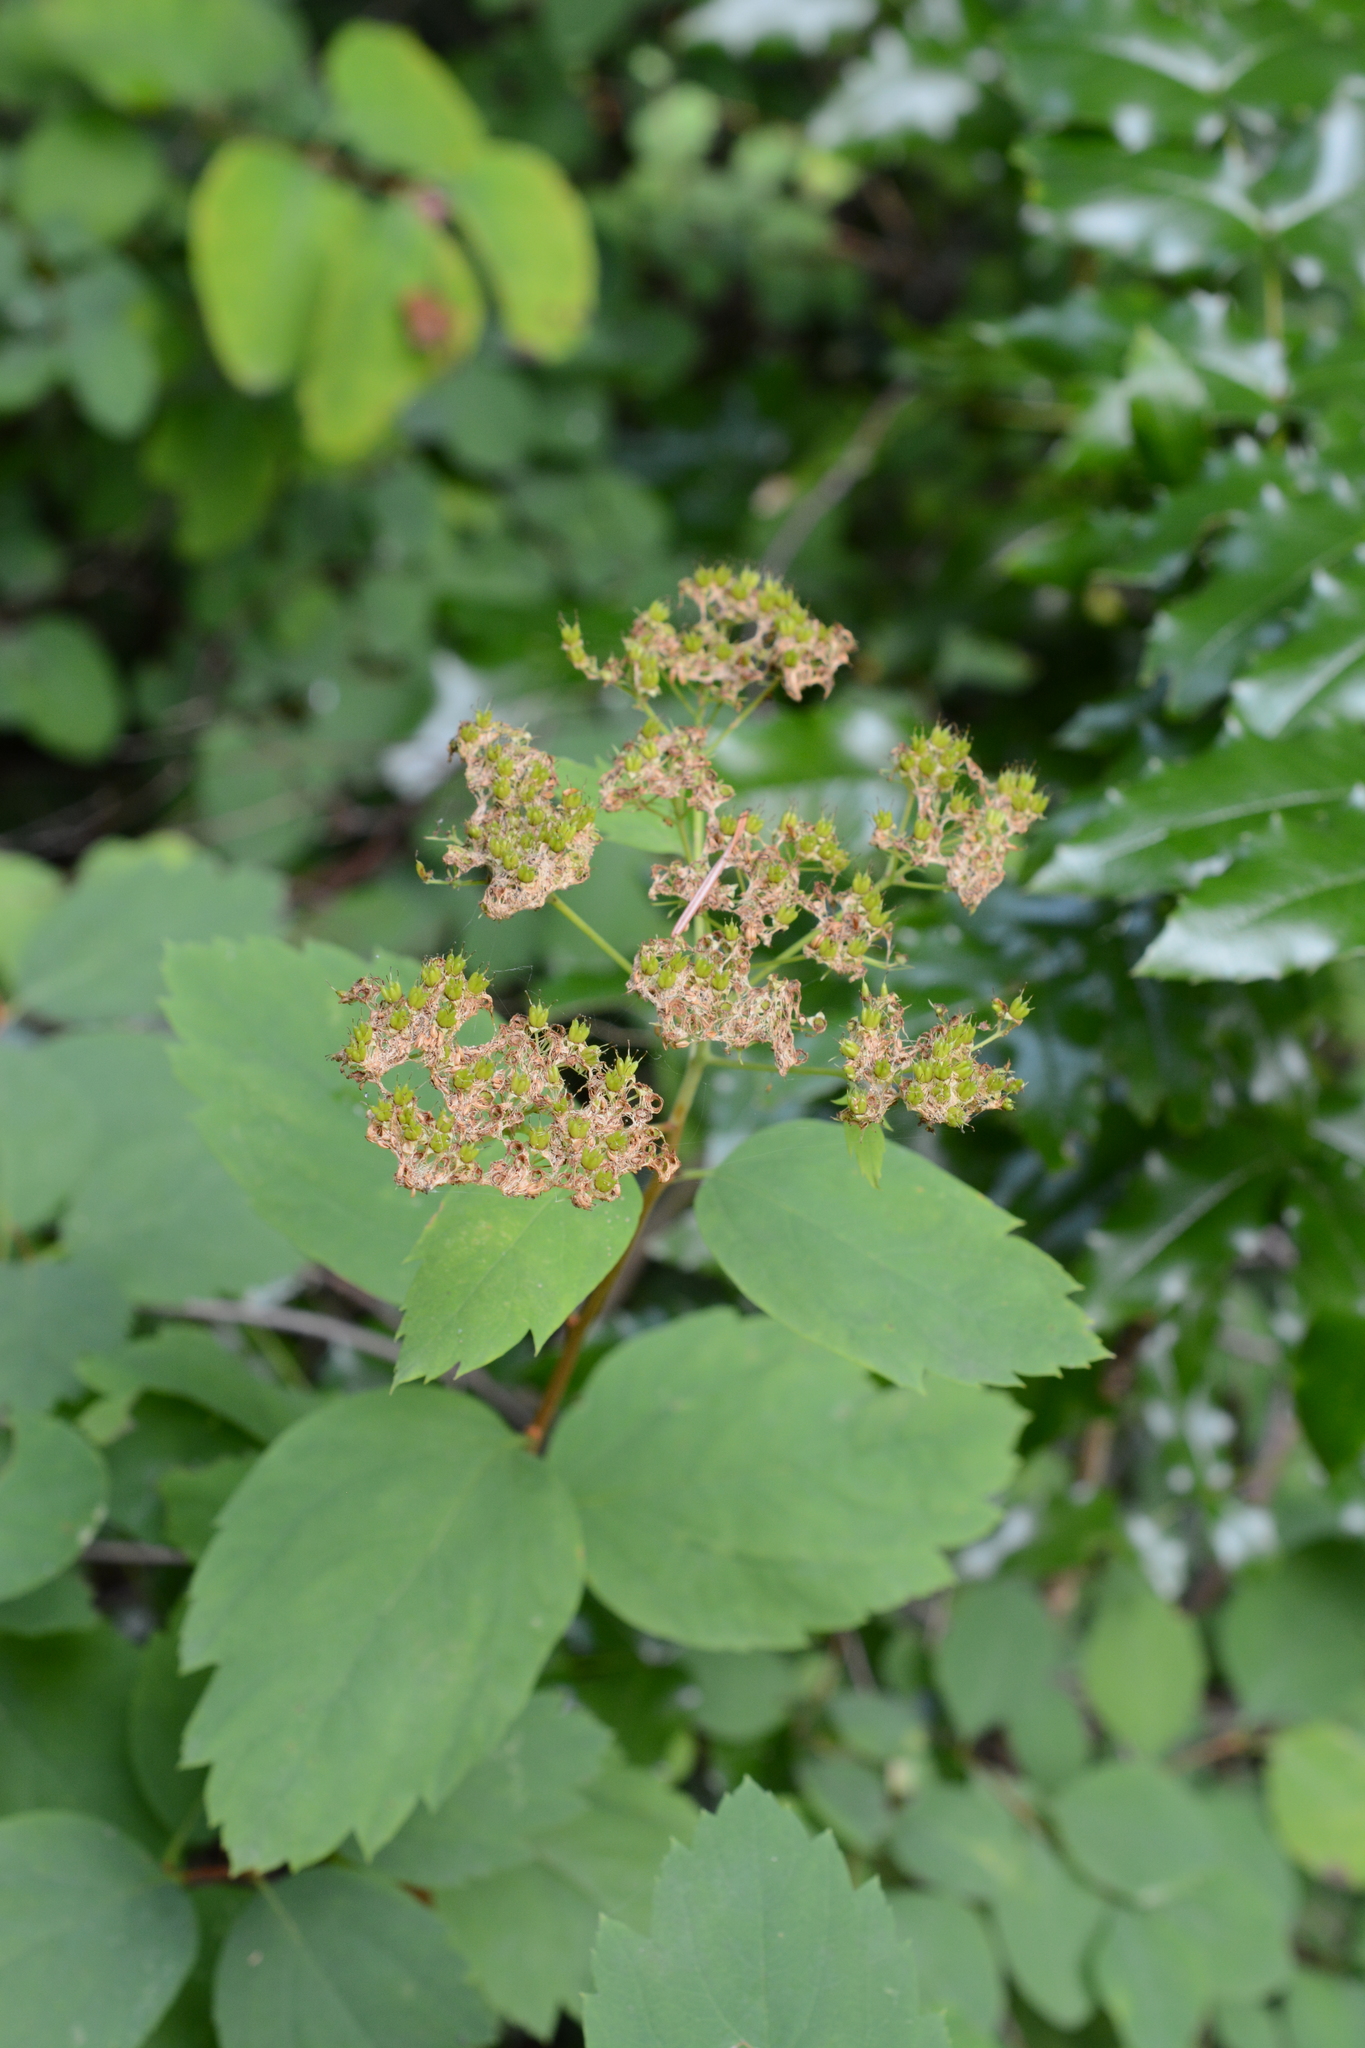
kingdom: Plantae
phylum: Tracheophyta
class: Magnoliopsida
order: Rosales
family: Rosaceae
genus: Spiraea
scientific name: Spiraea lucida
